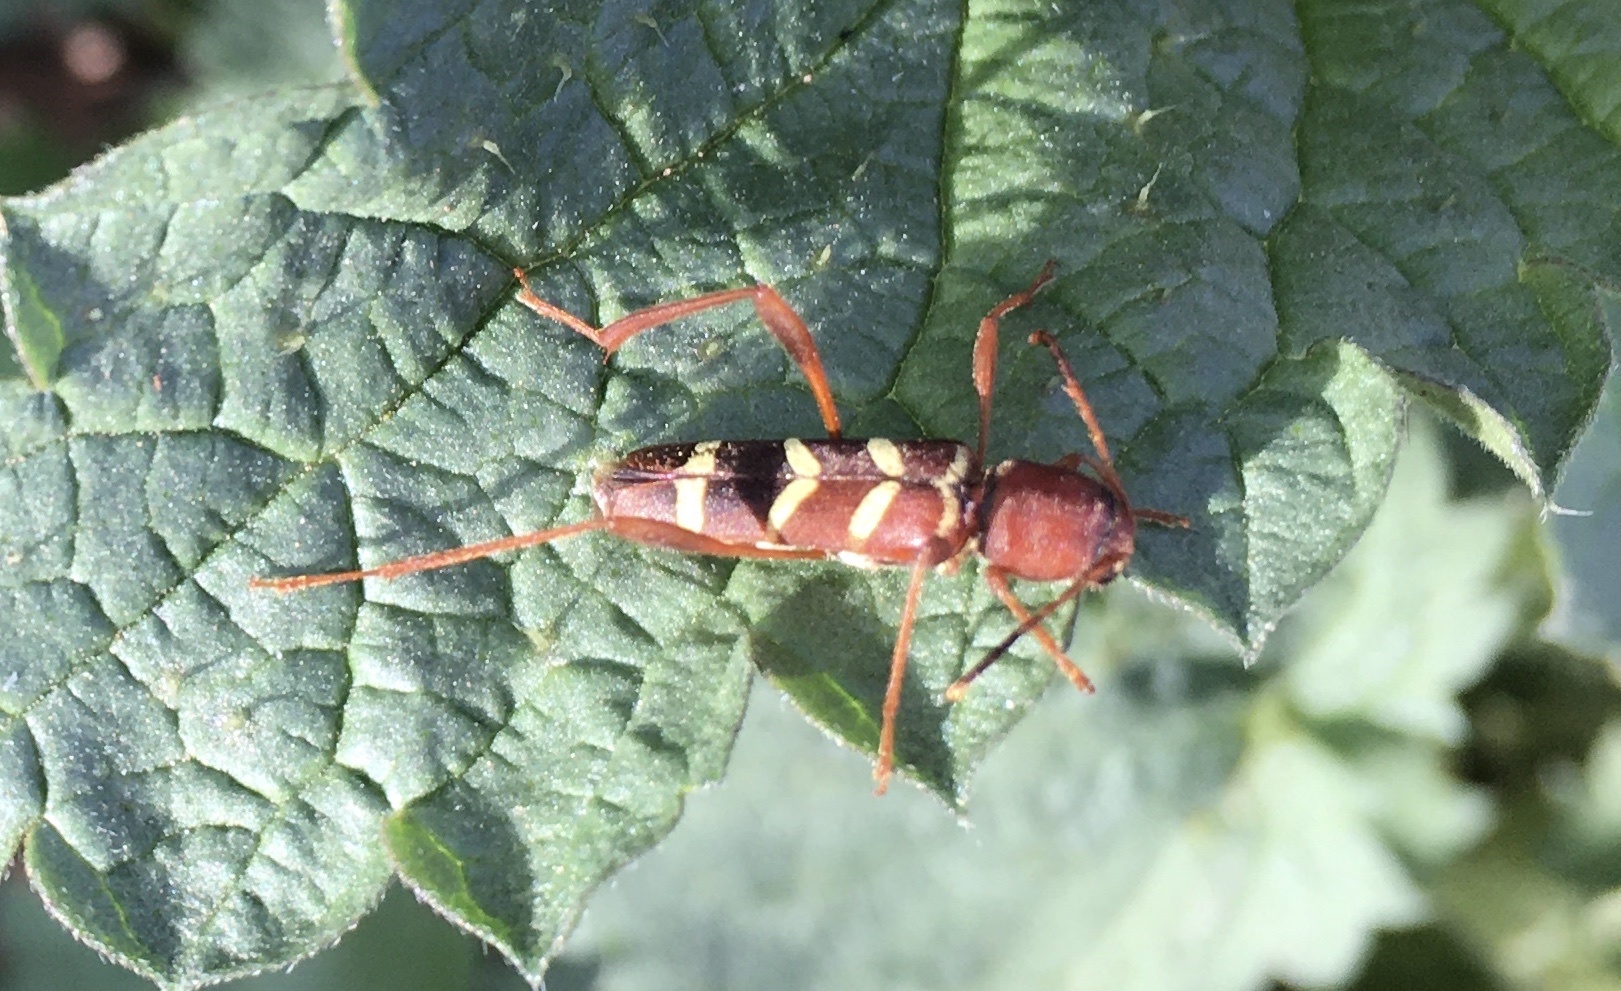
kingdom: Animalia
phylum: Arthropoda
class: Insecta
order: Coleoptera
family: Cerambycidae
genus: Neoclytus
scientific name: Neoclytus acuminatus
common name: Read-headed ash borer
